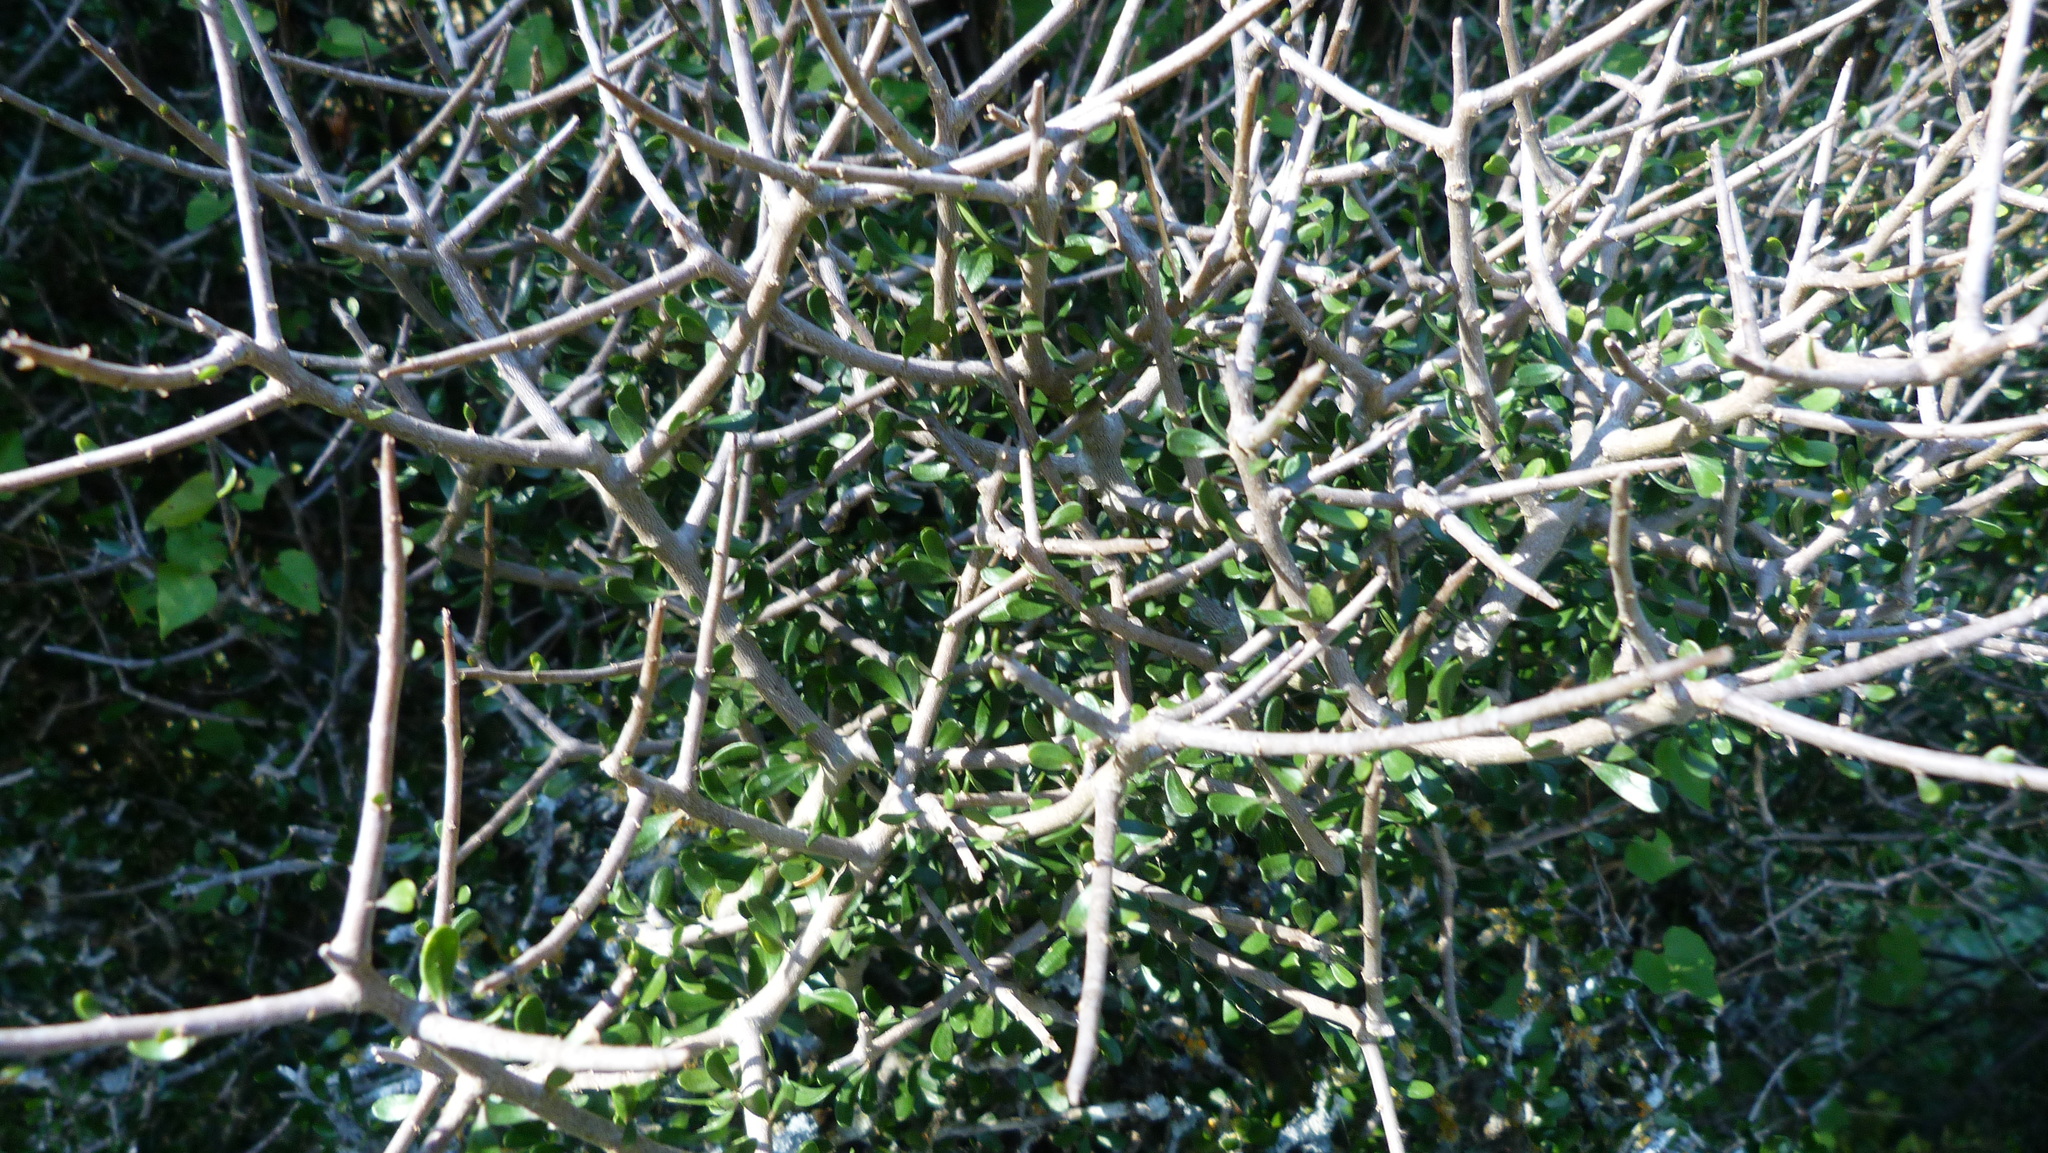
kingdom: Plantae
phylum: Tracheophyta
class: Magnoliopsida
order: Malpighiales
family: Violaceae
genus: Melicytus
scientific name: Melicytus alpinus
